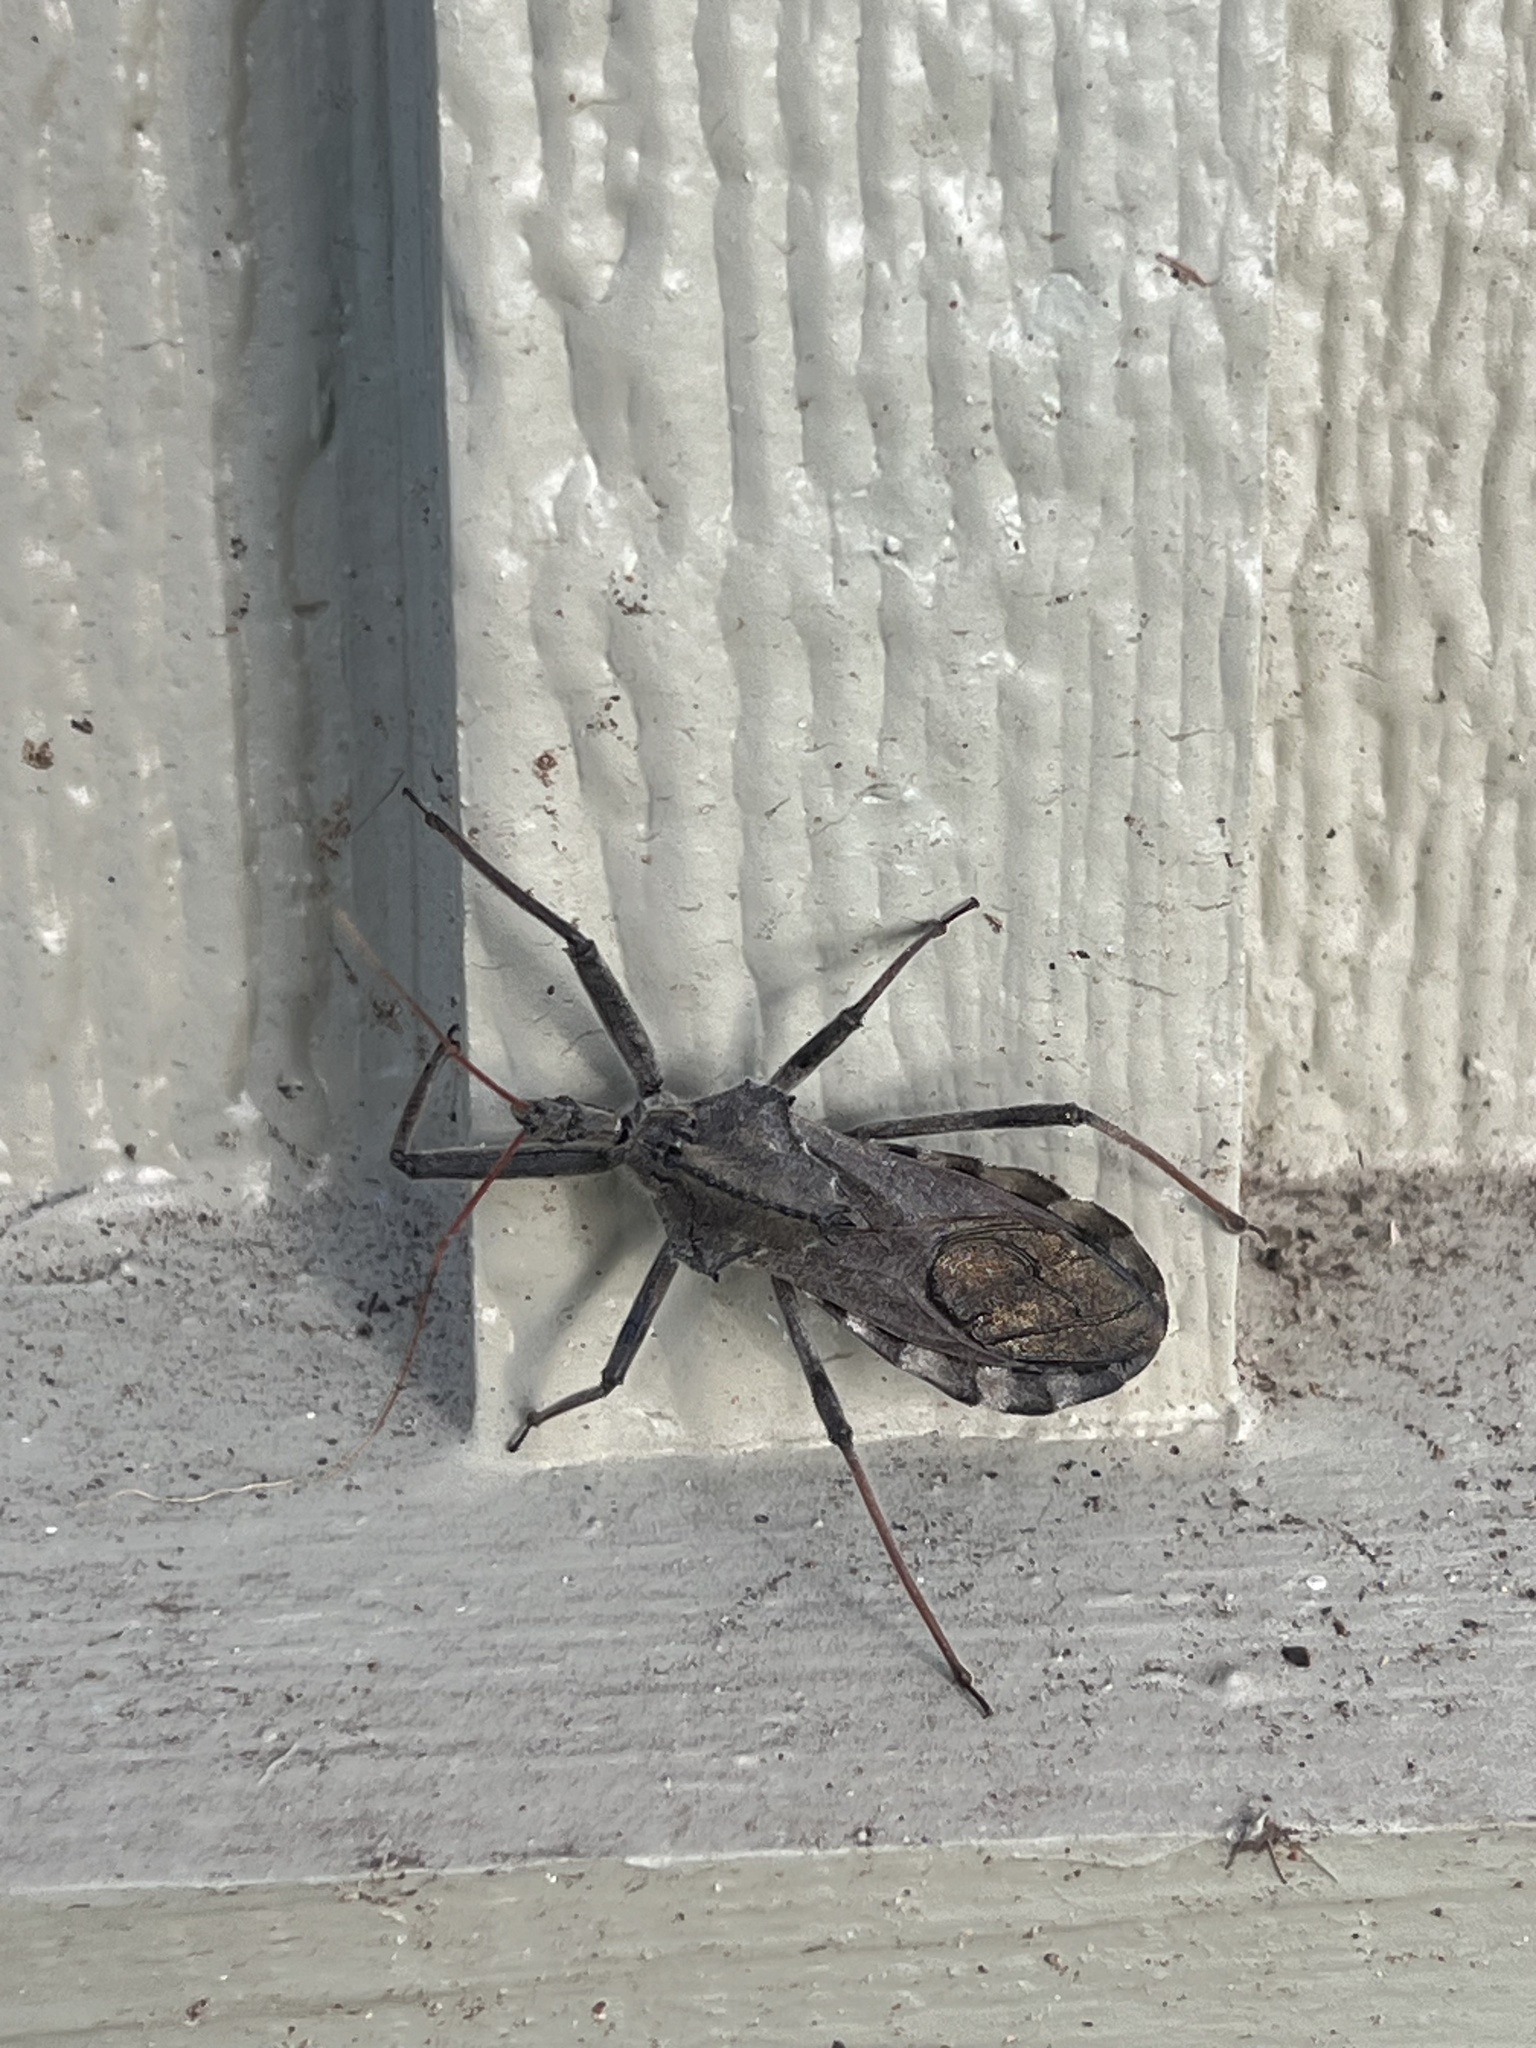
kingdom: Animalia
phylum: Arthropoda
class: Insecta
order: Hemiptera
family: Reduviidae
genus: Arilus
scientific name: Arilus cristatus
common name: North american wheel bug
